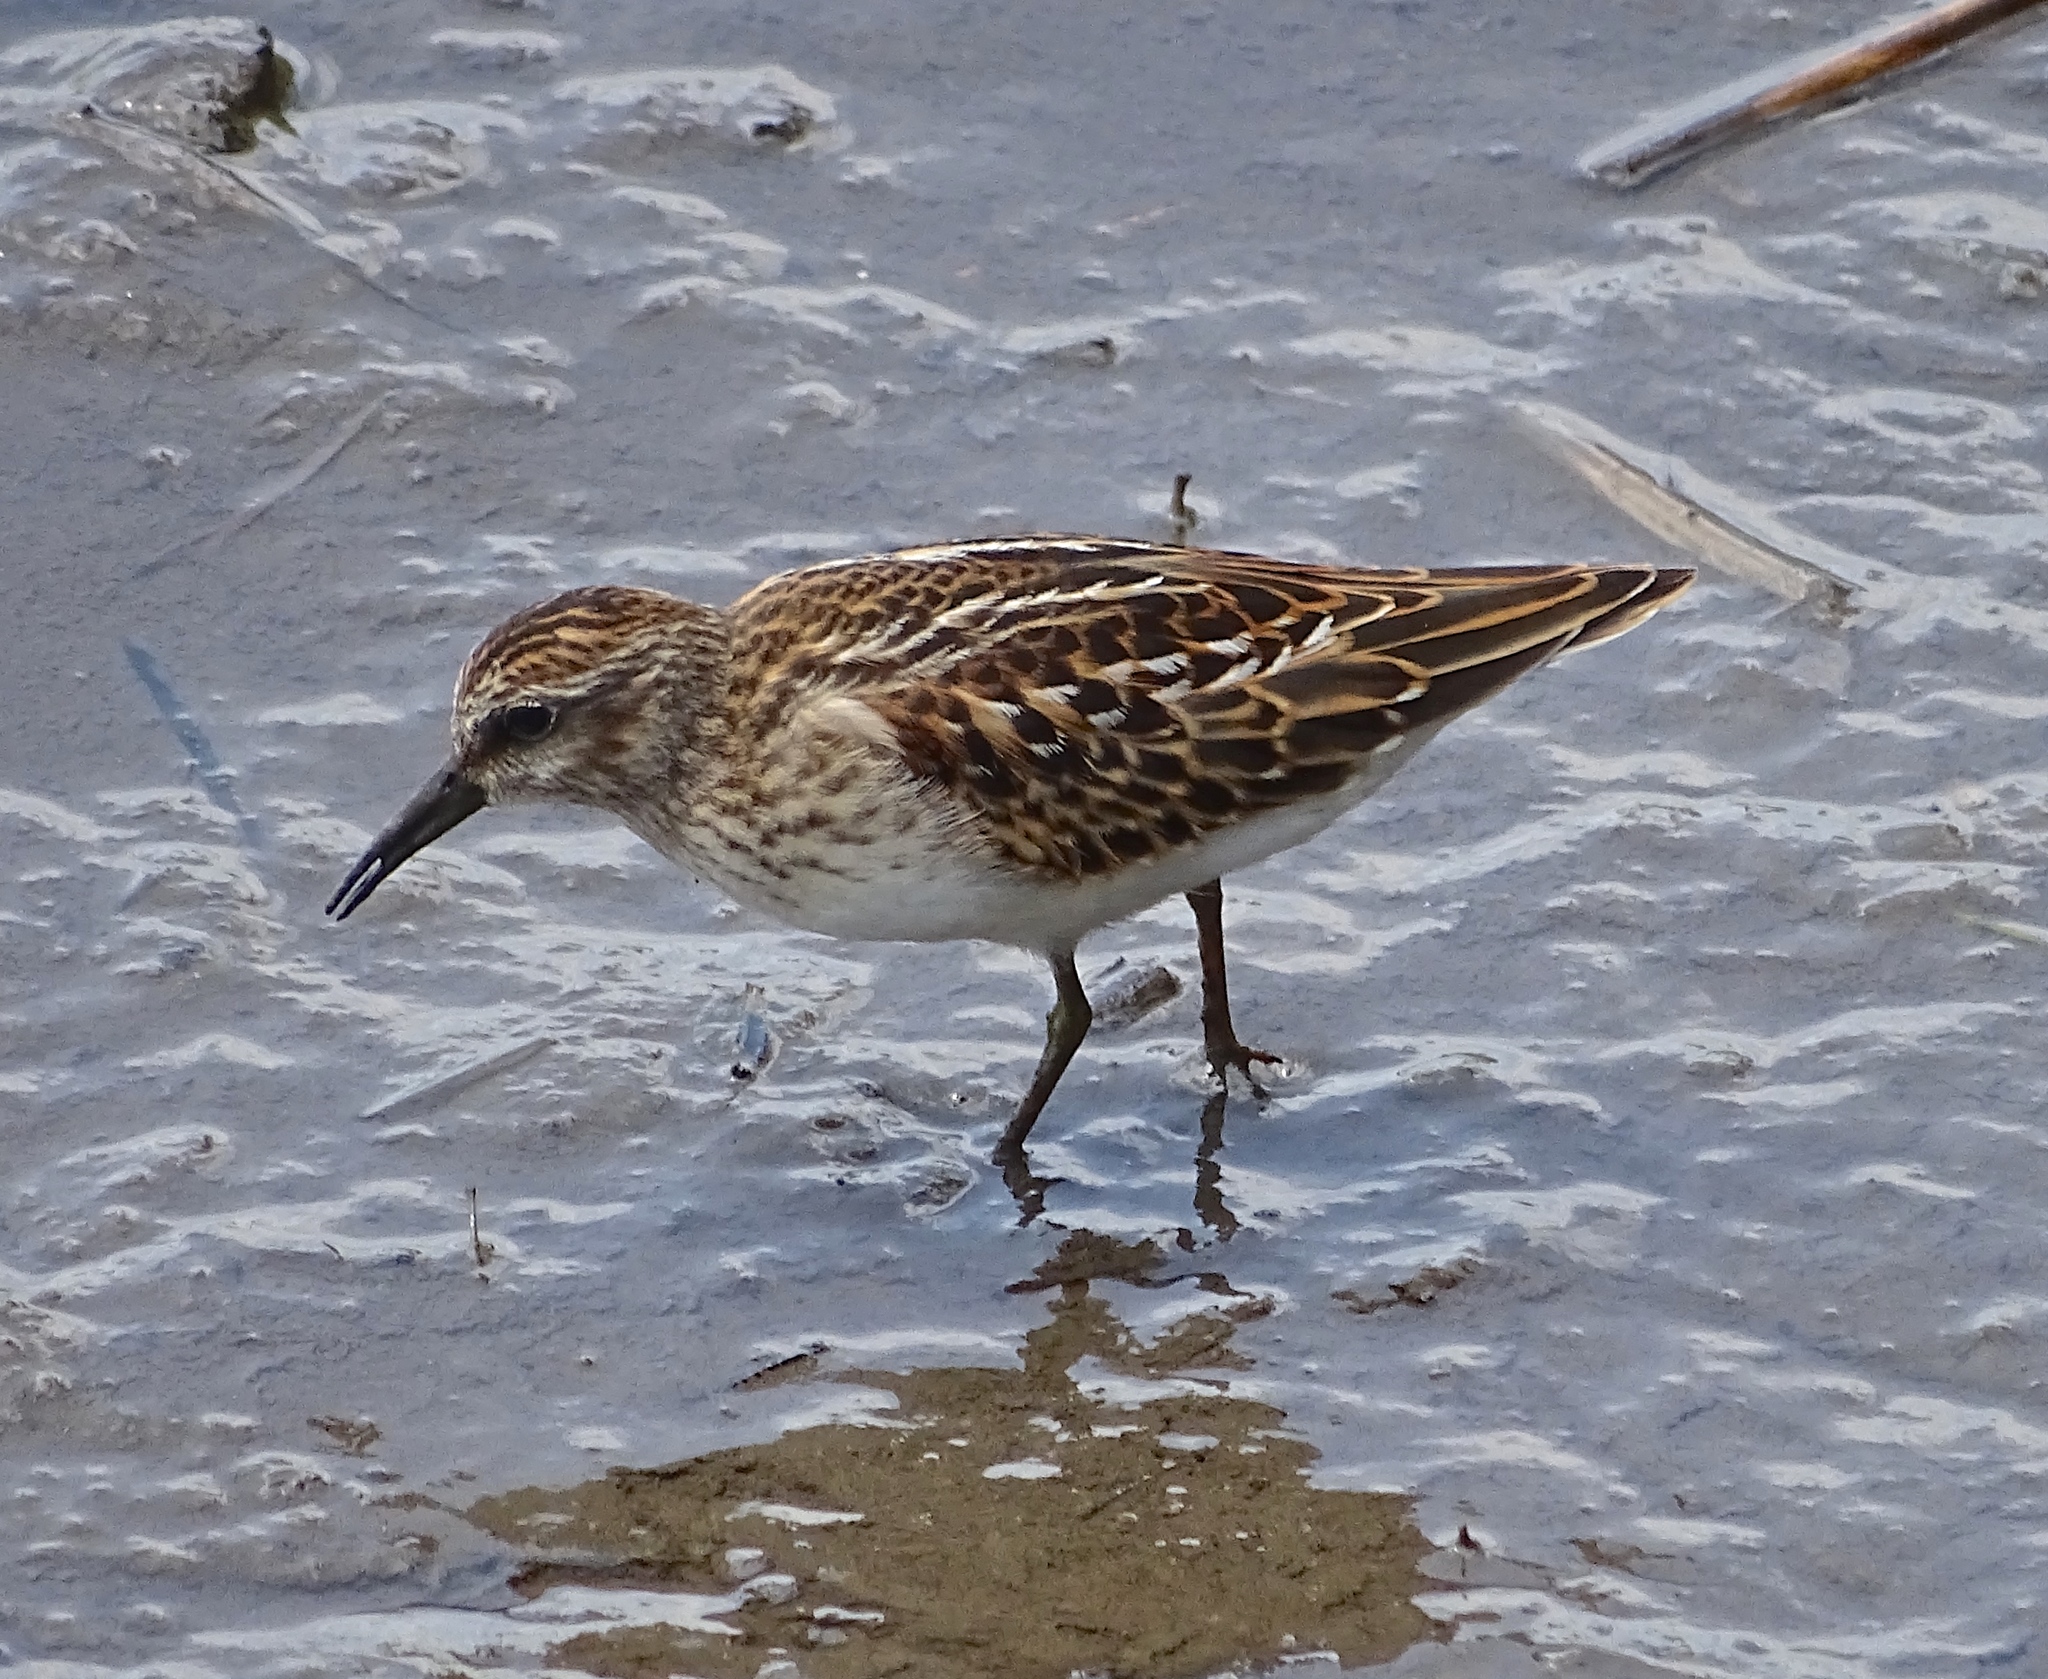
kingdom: Animalia
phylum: Chordata
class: Aves
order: Charadriiformes
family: Scolopacidae
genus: Calidris
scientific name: Calidris minutilla
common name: Least sandpiper
